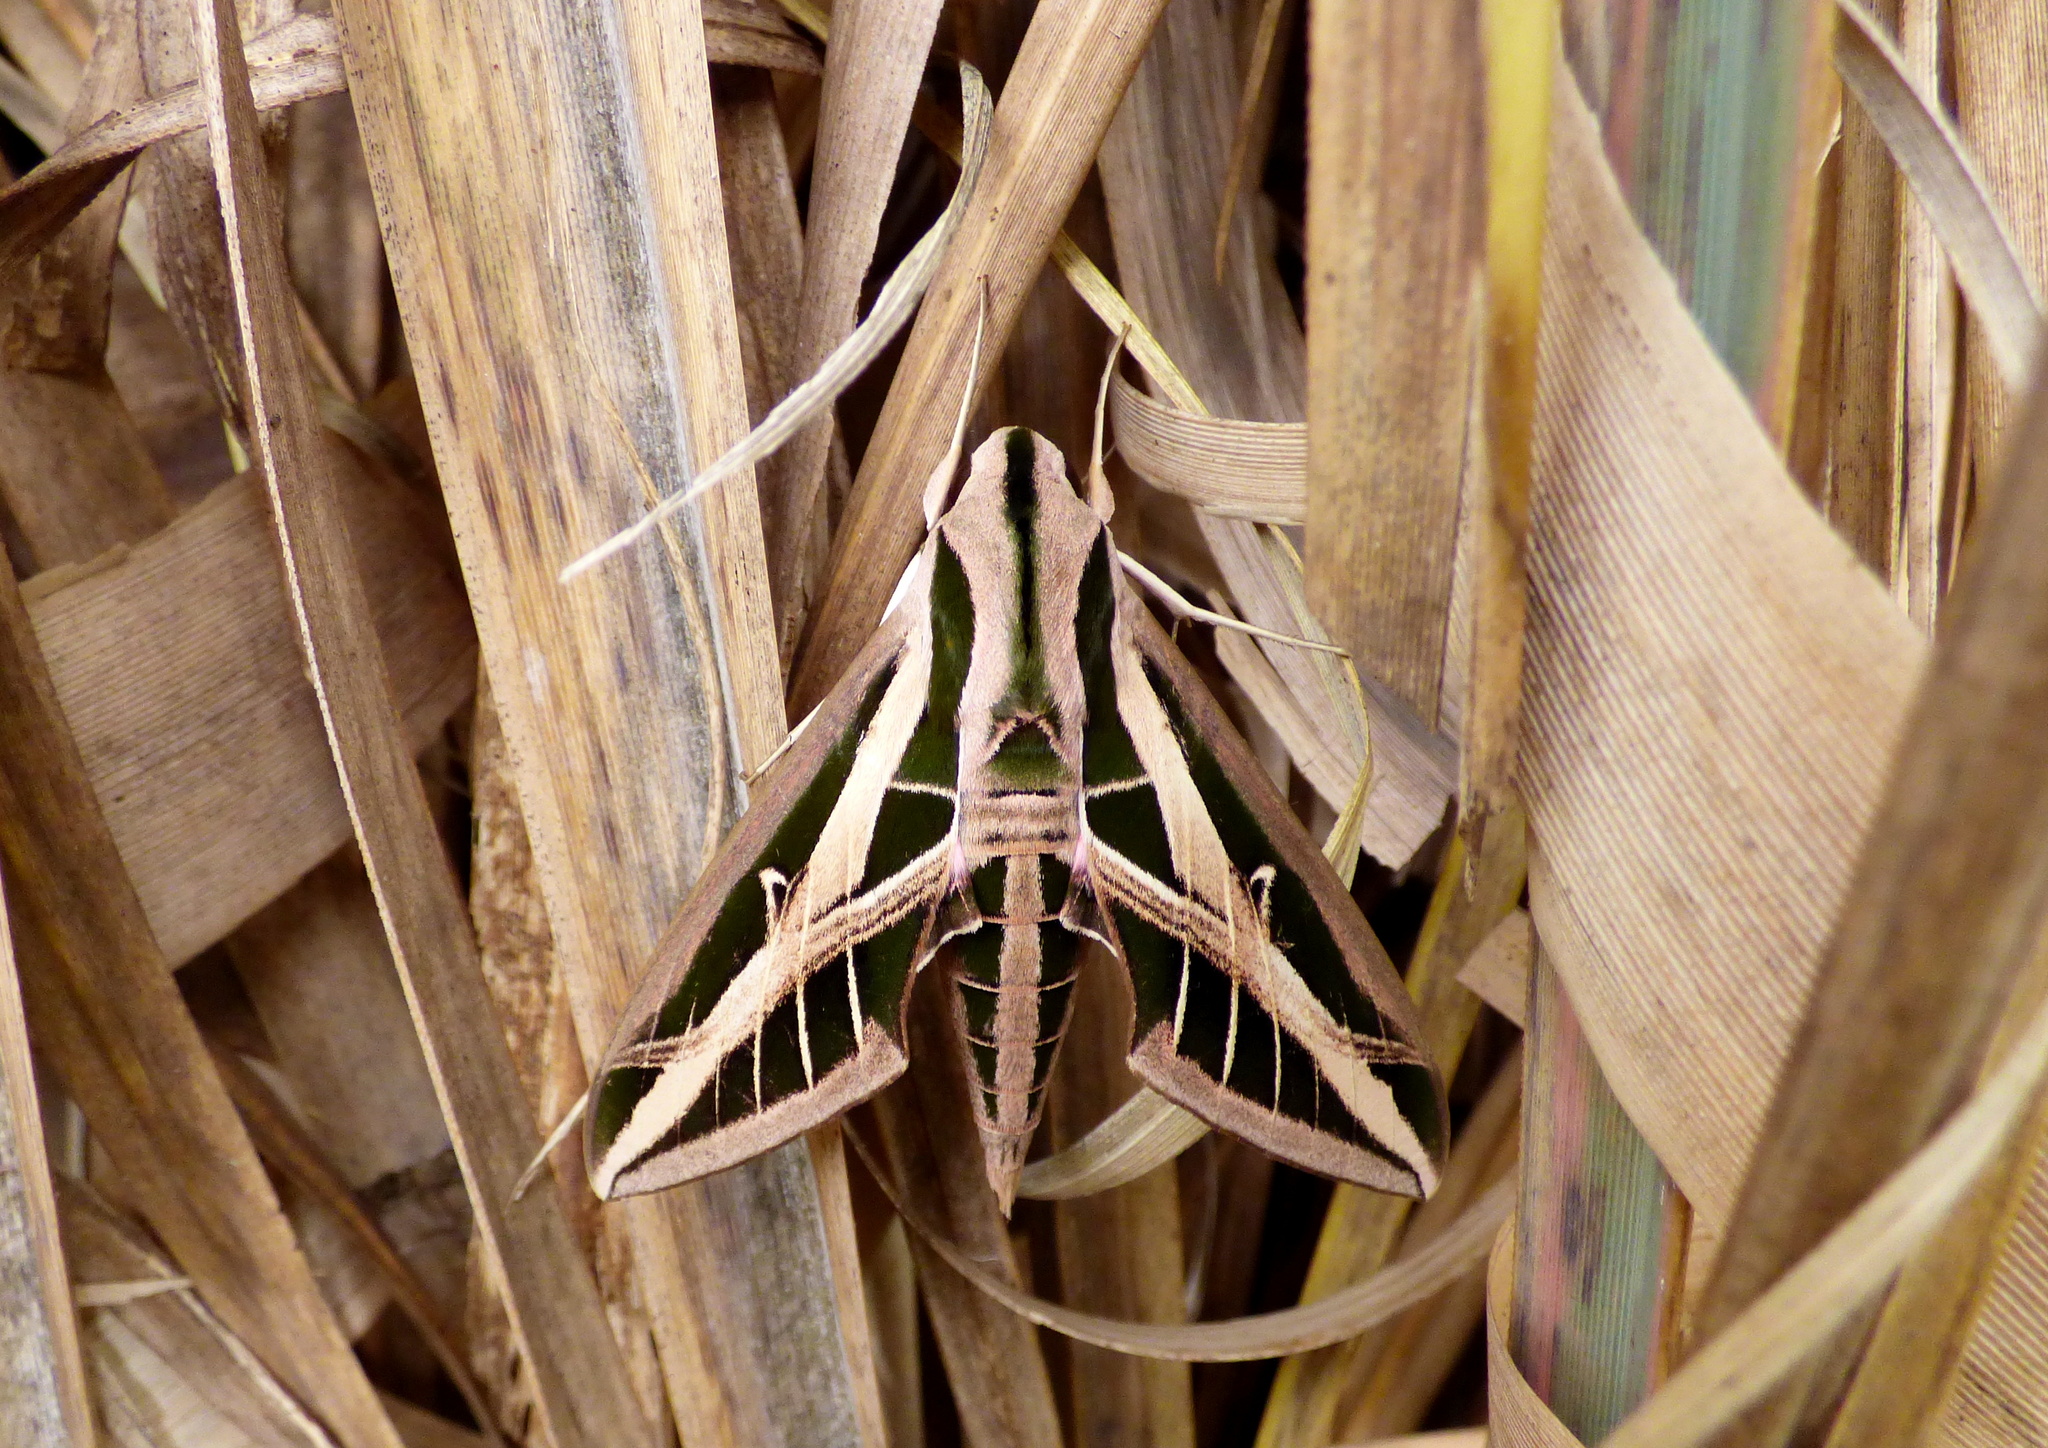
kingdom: Animalia
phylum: Arthropoda
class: Insecta
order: Lepidoptera
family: Sphingidae
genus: Eumorpha
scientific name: Eumorpha fasciatus
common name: Banded sphinx
